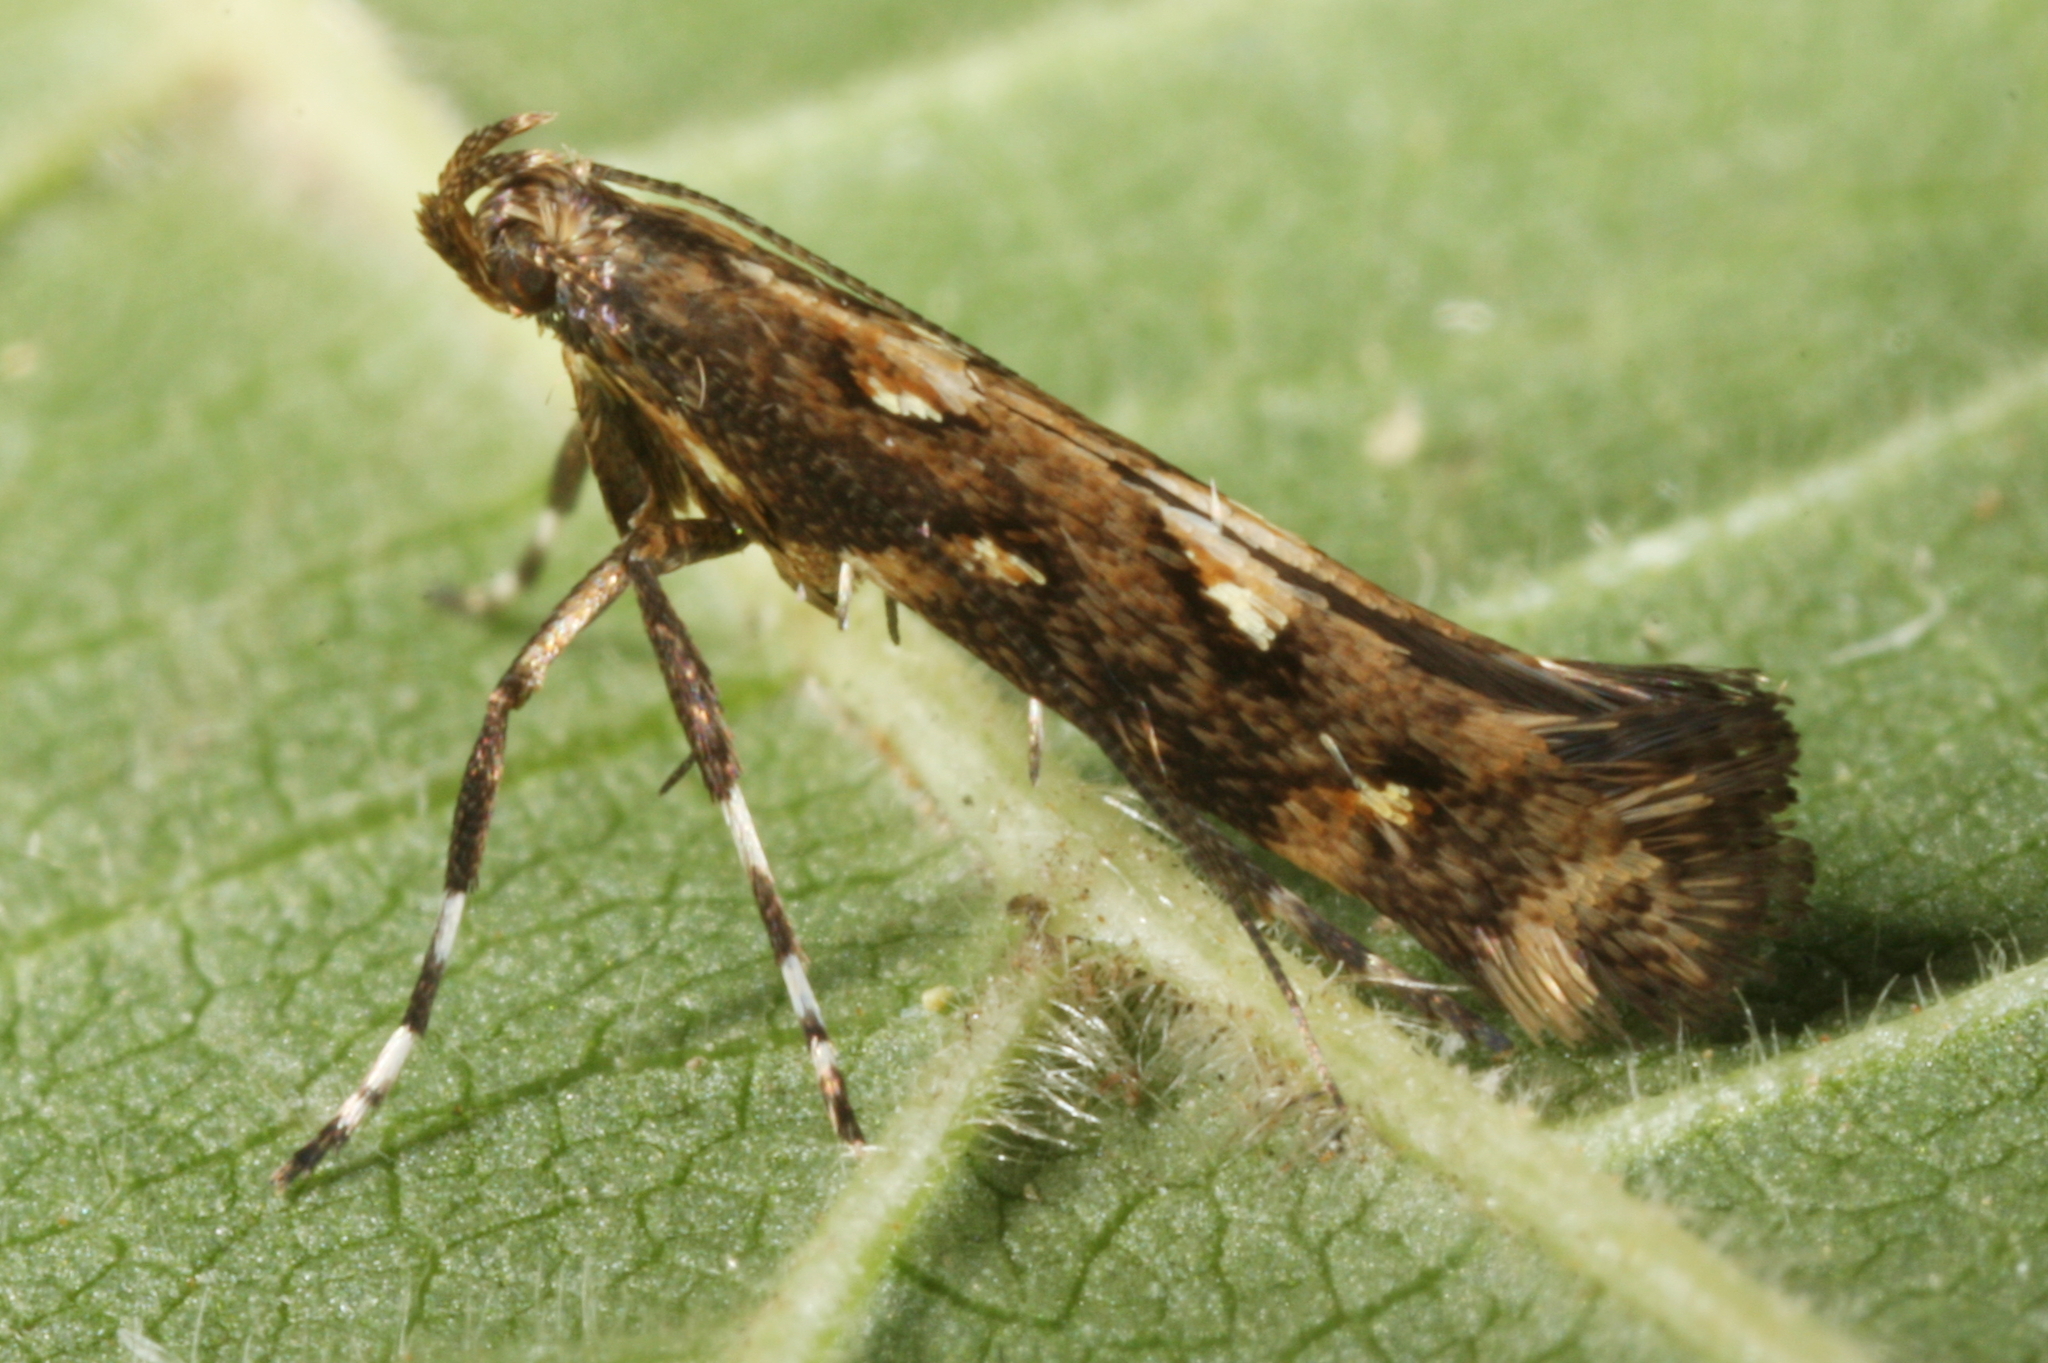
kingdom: Animalia
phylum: Arthropoda
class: Insecta
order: Lepidoptera
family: Gracillariidae
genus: Calybites
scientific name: Calybites phasianipennella
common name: Little slender
